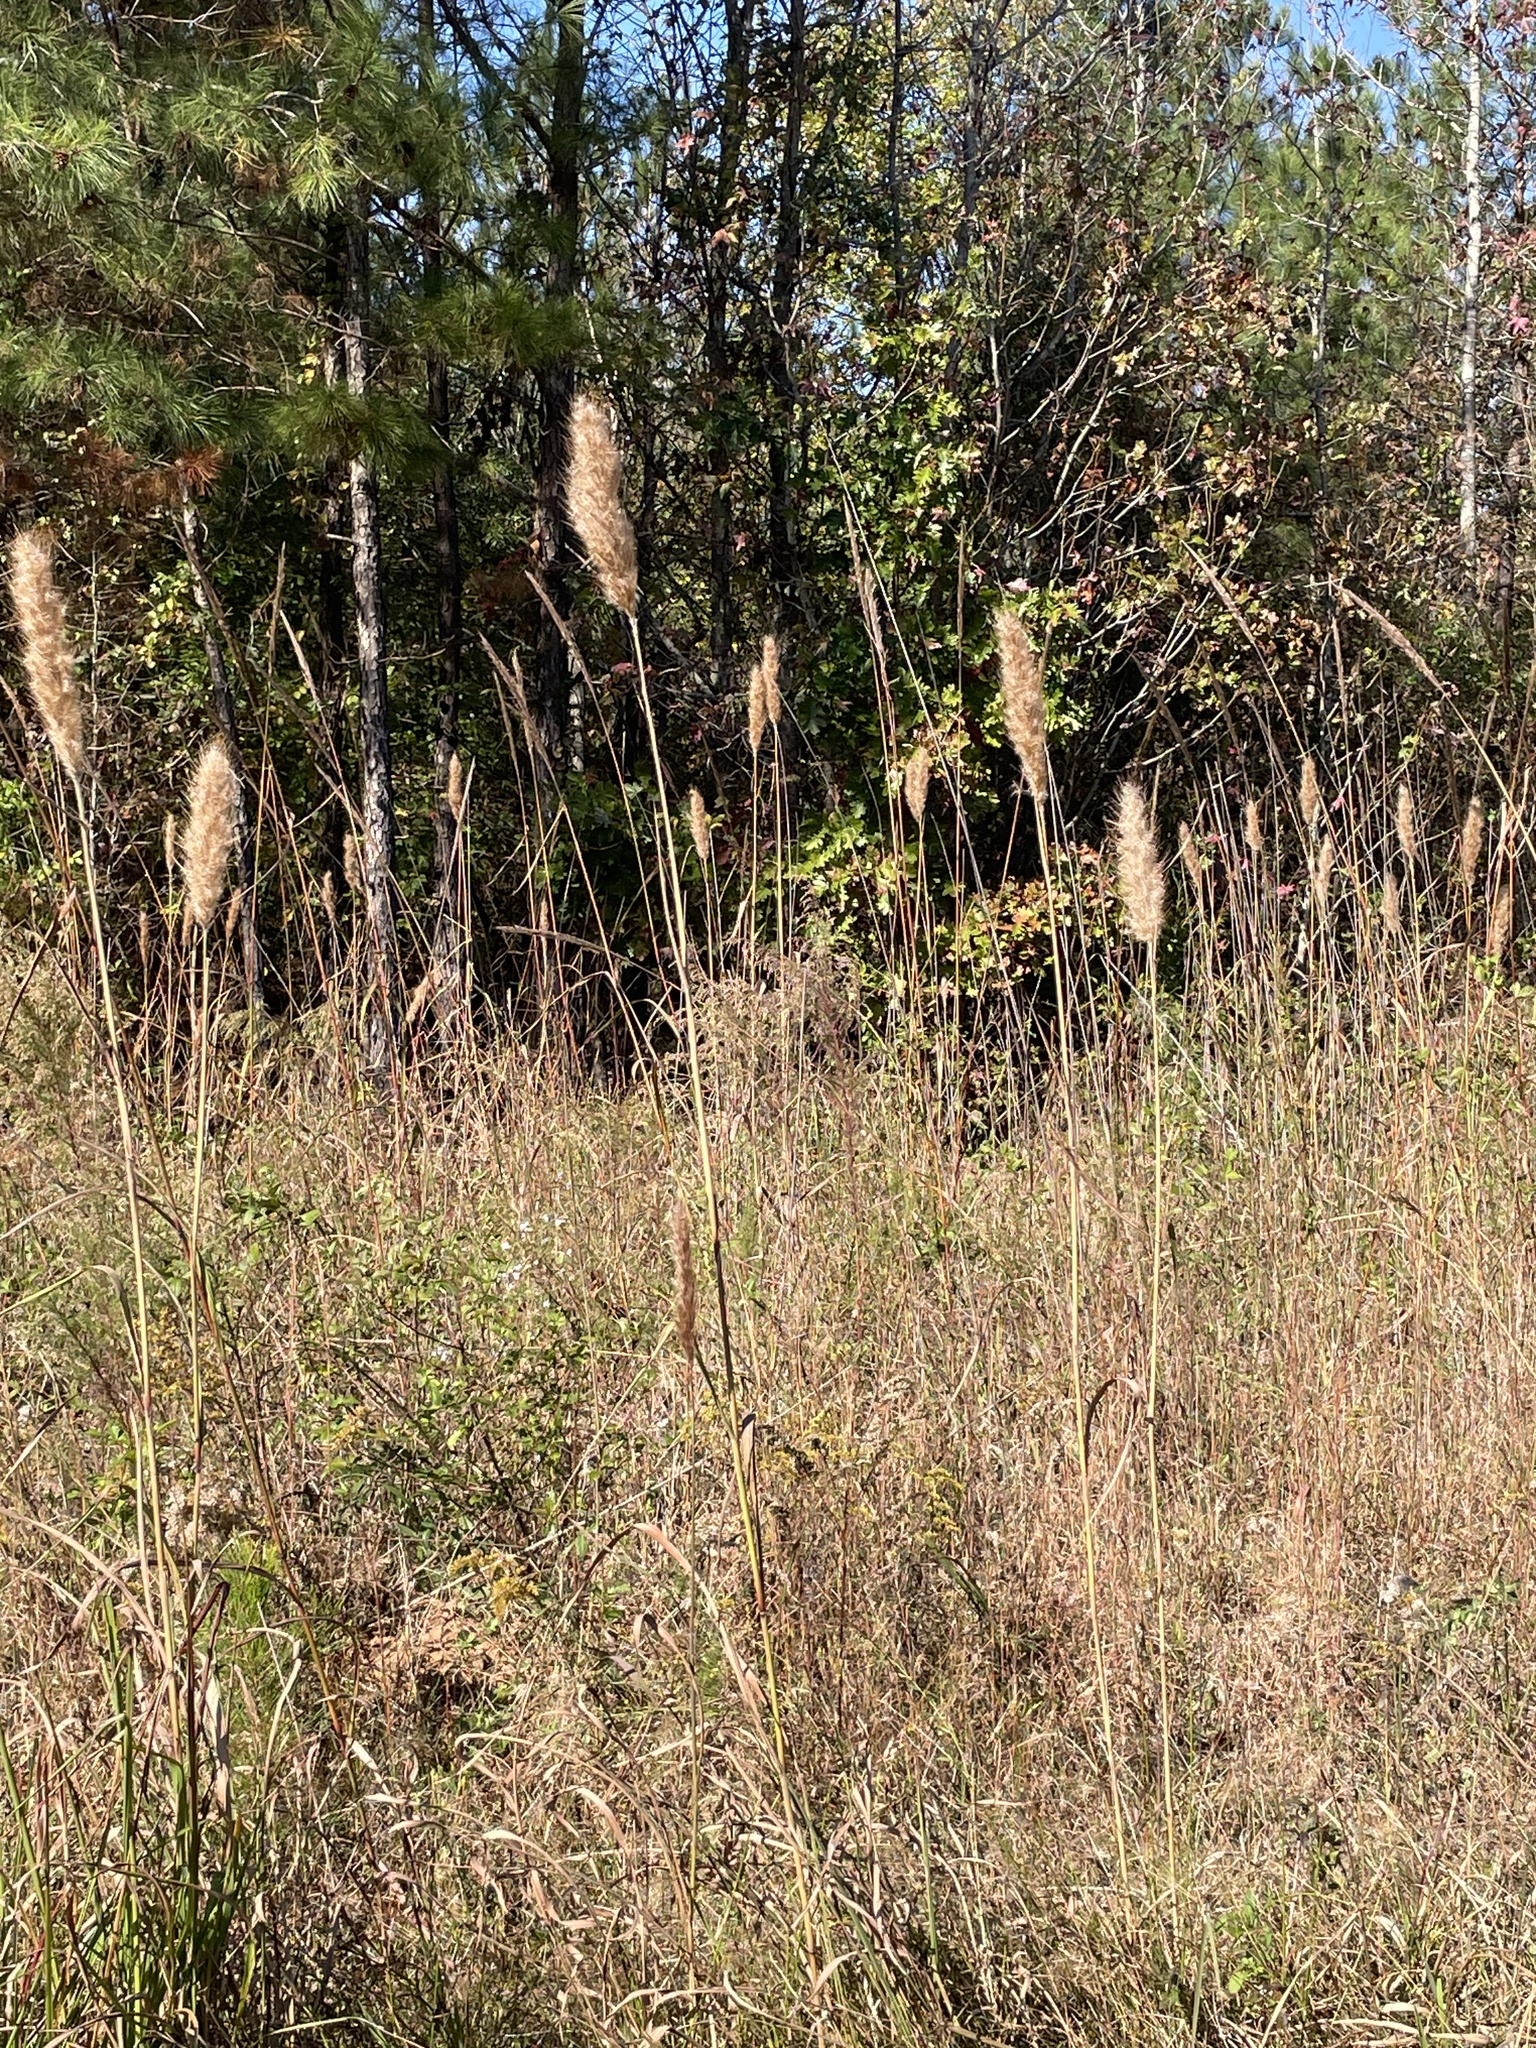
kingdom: Plantae
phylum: Tracheophyta
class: Liliopsida
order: Poales
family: Poaceae
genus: Erianthus
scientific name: Erianthus giganteus
